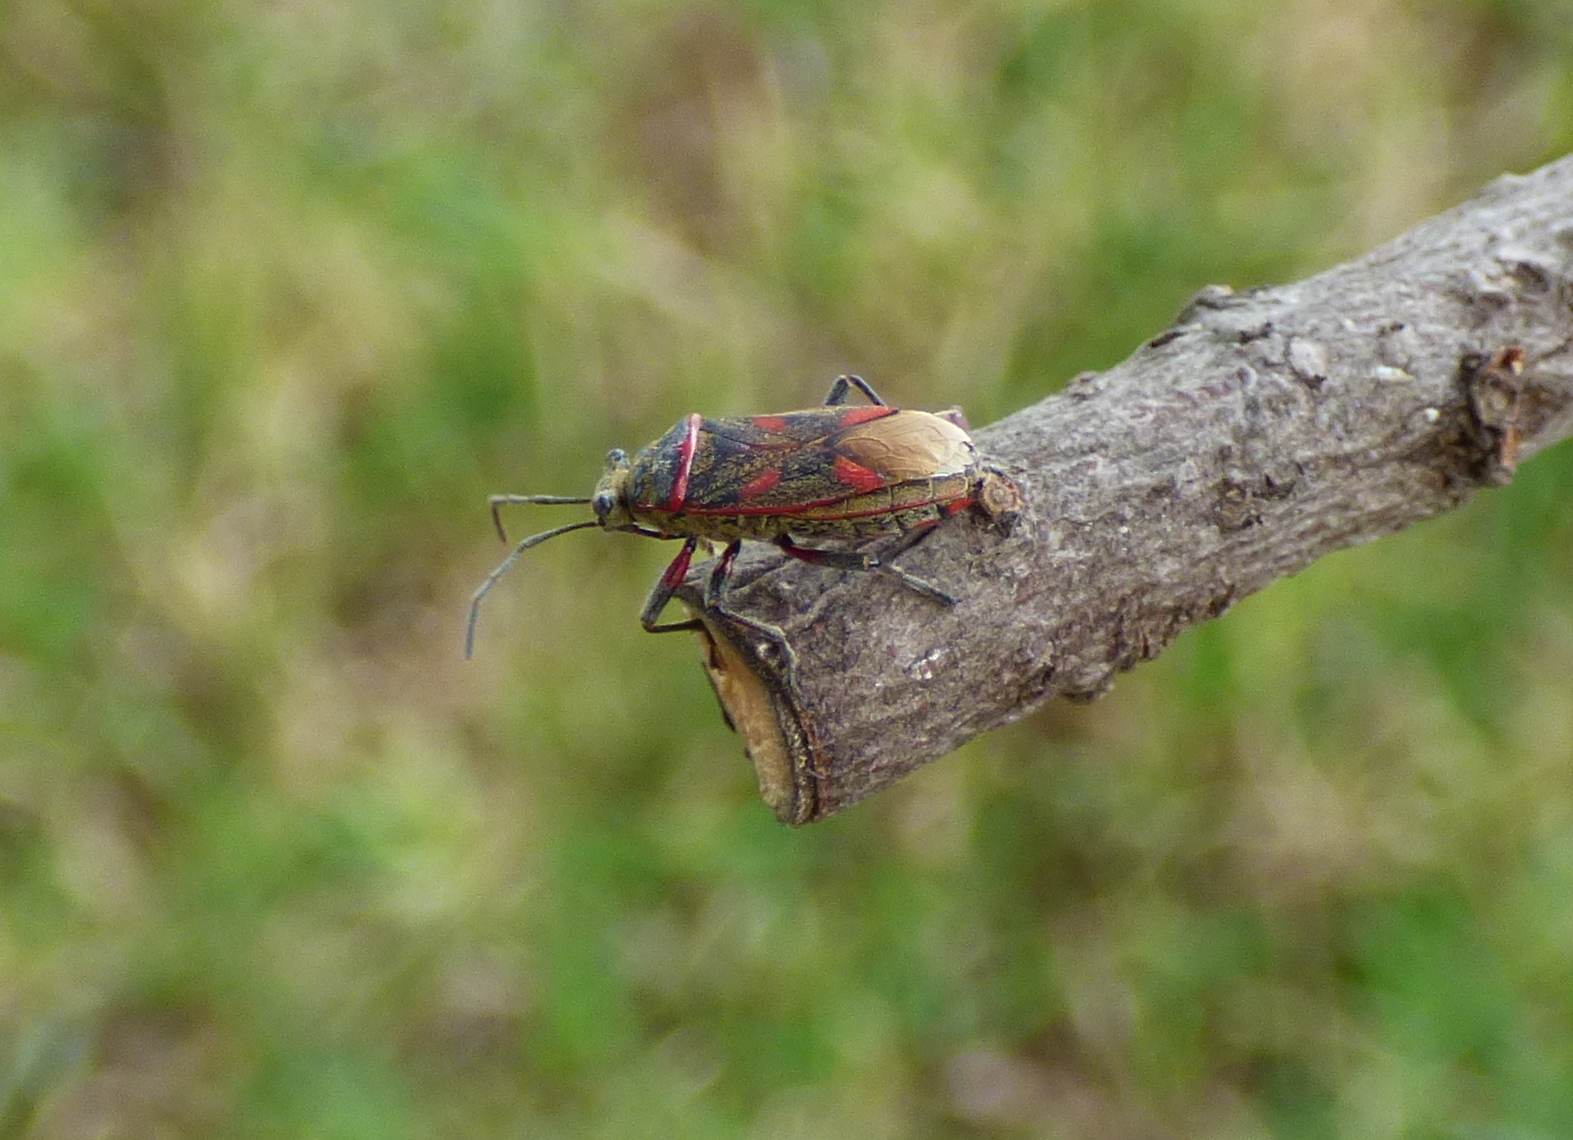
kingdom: Animalia
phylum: Arthropoda
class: Insecta
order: Hemiptera
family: Largidae
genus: Acinocoris
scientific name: Acinocoris lunaris
